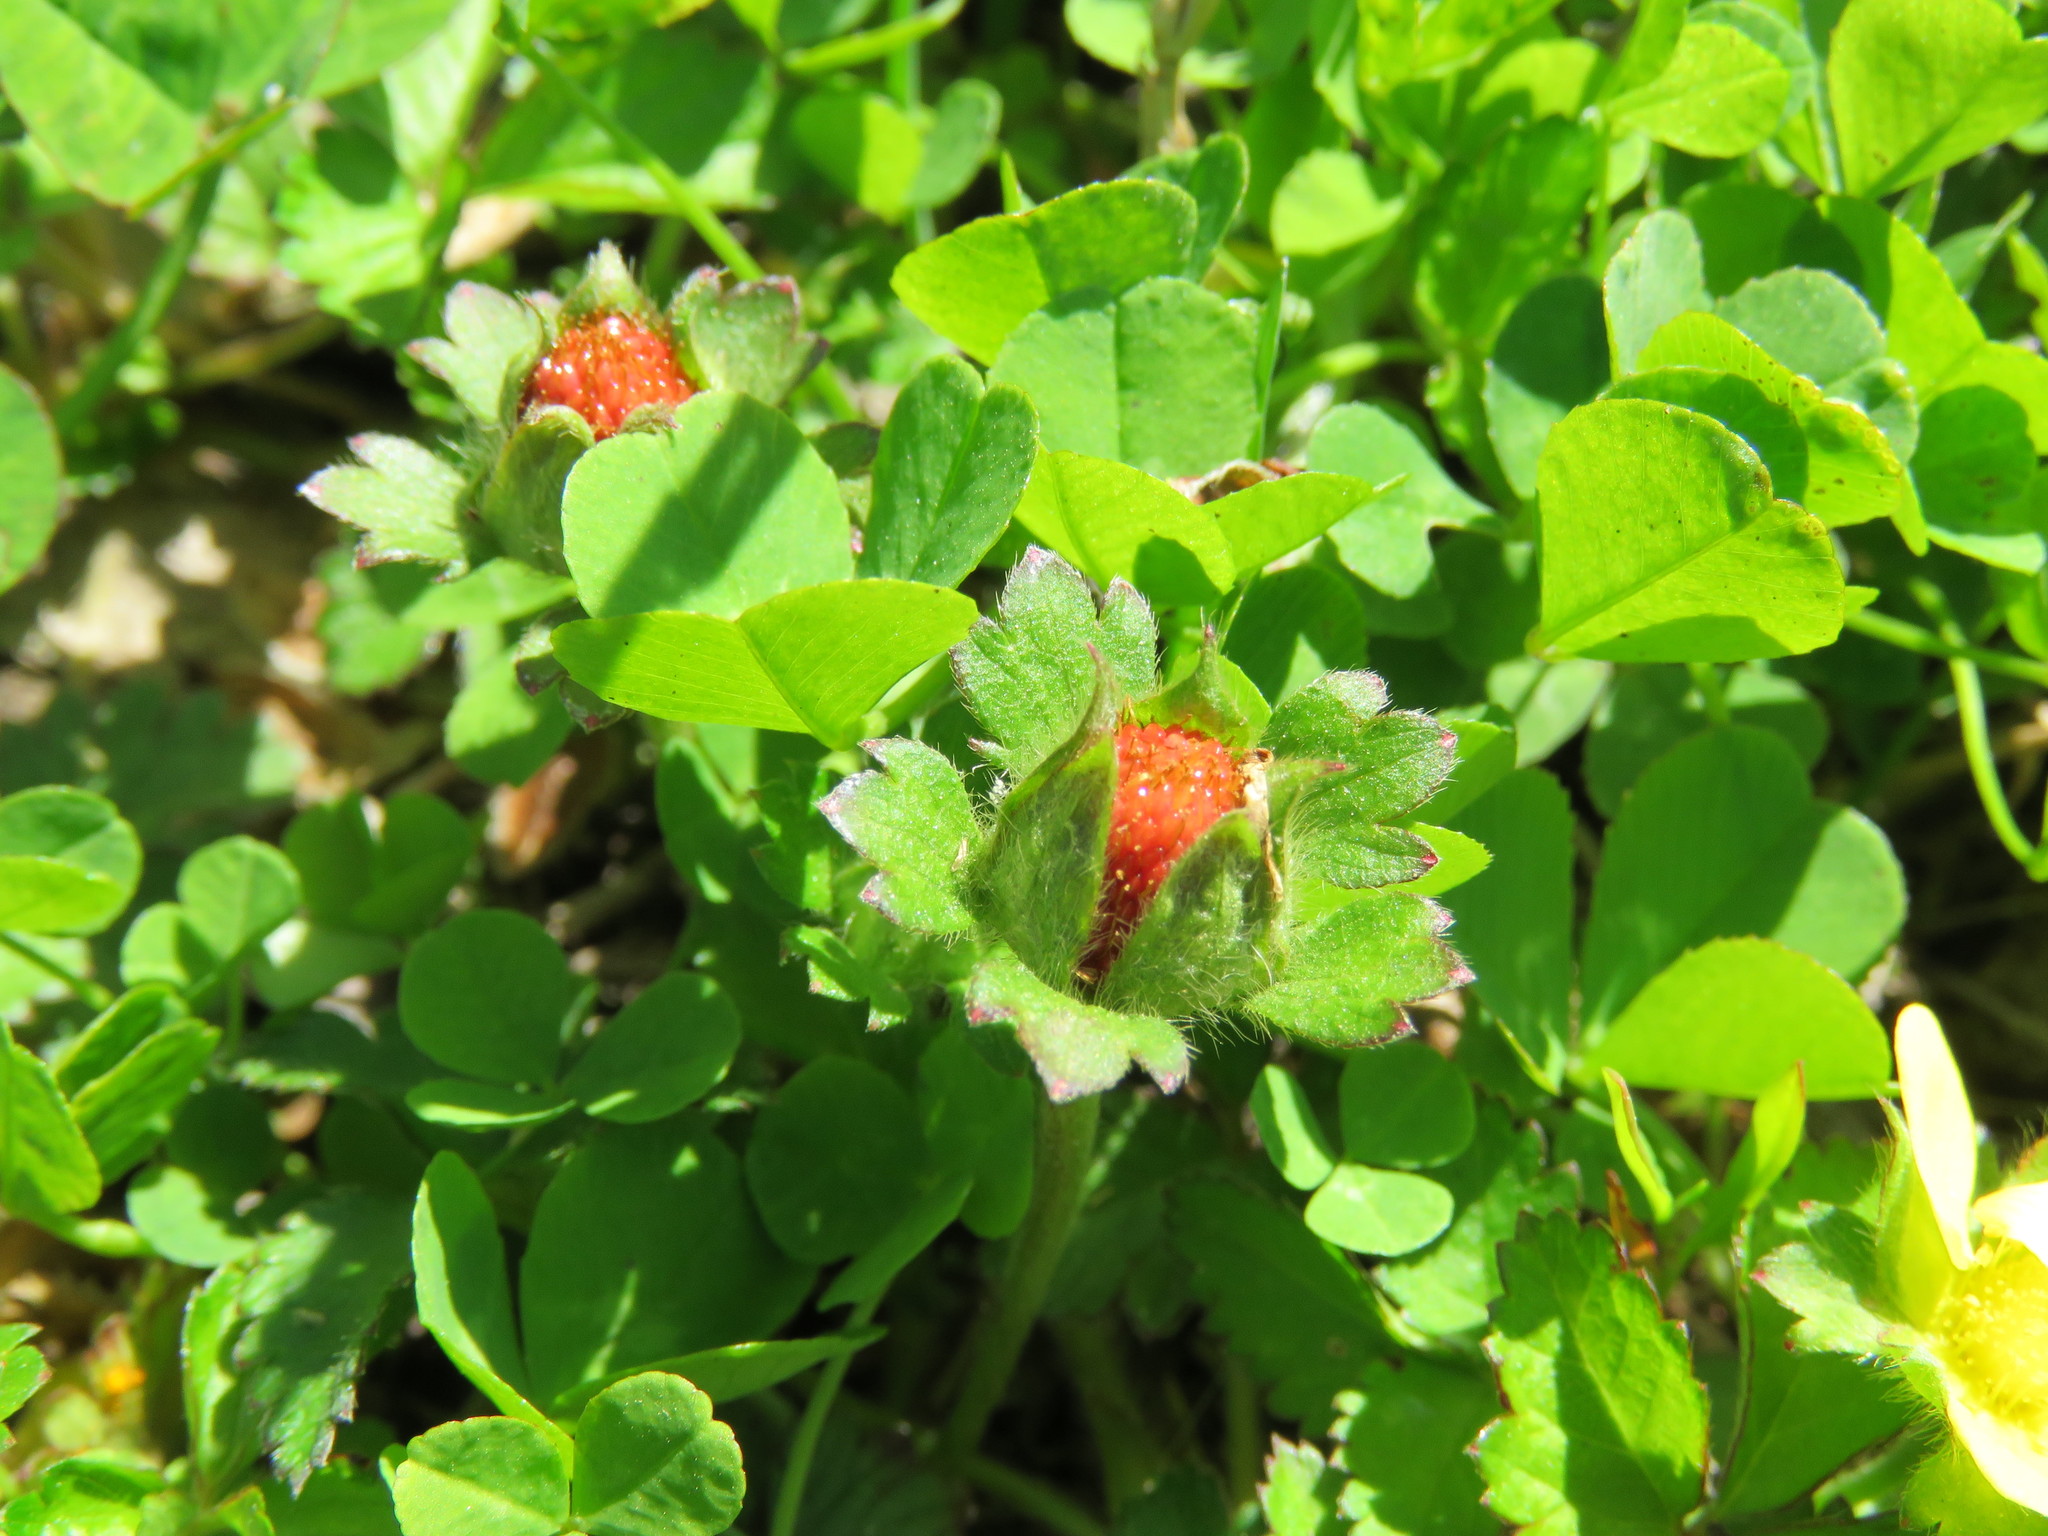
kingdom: Plantae
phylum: Tracheophyta
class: Magnoliopsida
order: Rosales
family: Rosaceae
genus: Potentilla
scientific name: Potentilla indica
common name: Yellow-flowered strawberry
